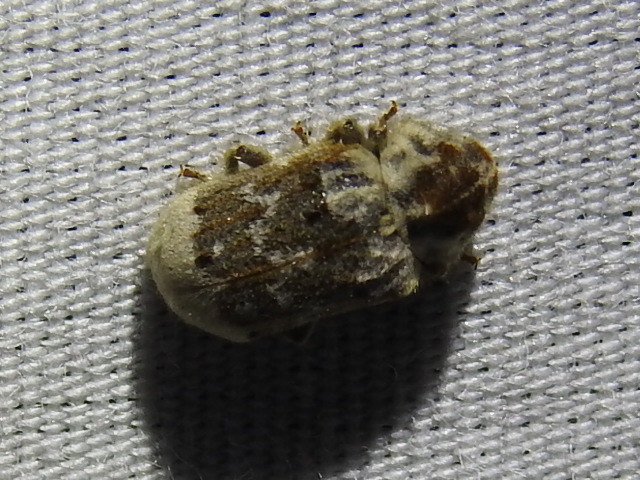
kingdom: Animalia
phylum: Arthropoda
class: Insecta
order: Coleoptera
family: Anobiidae
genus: Trichodesma
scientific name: Trichodesma pulchella
